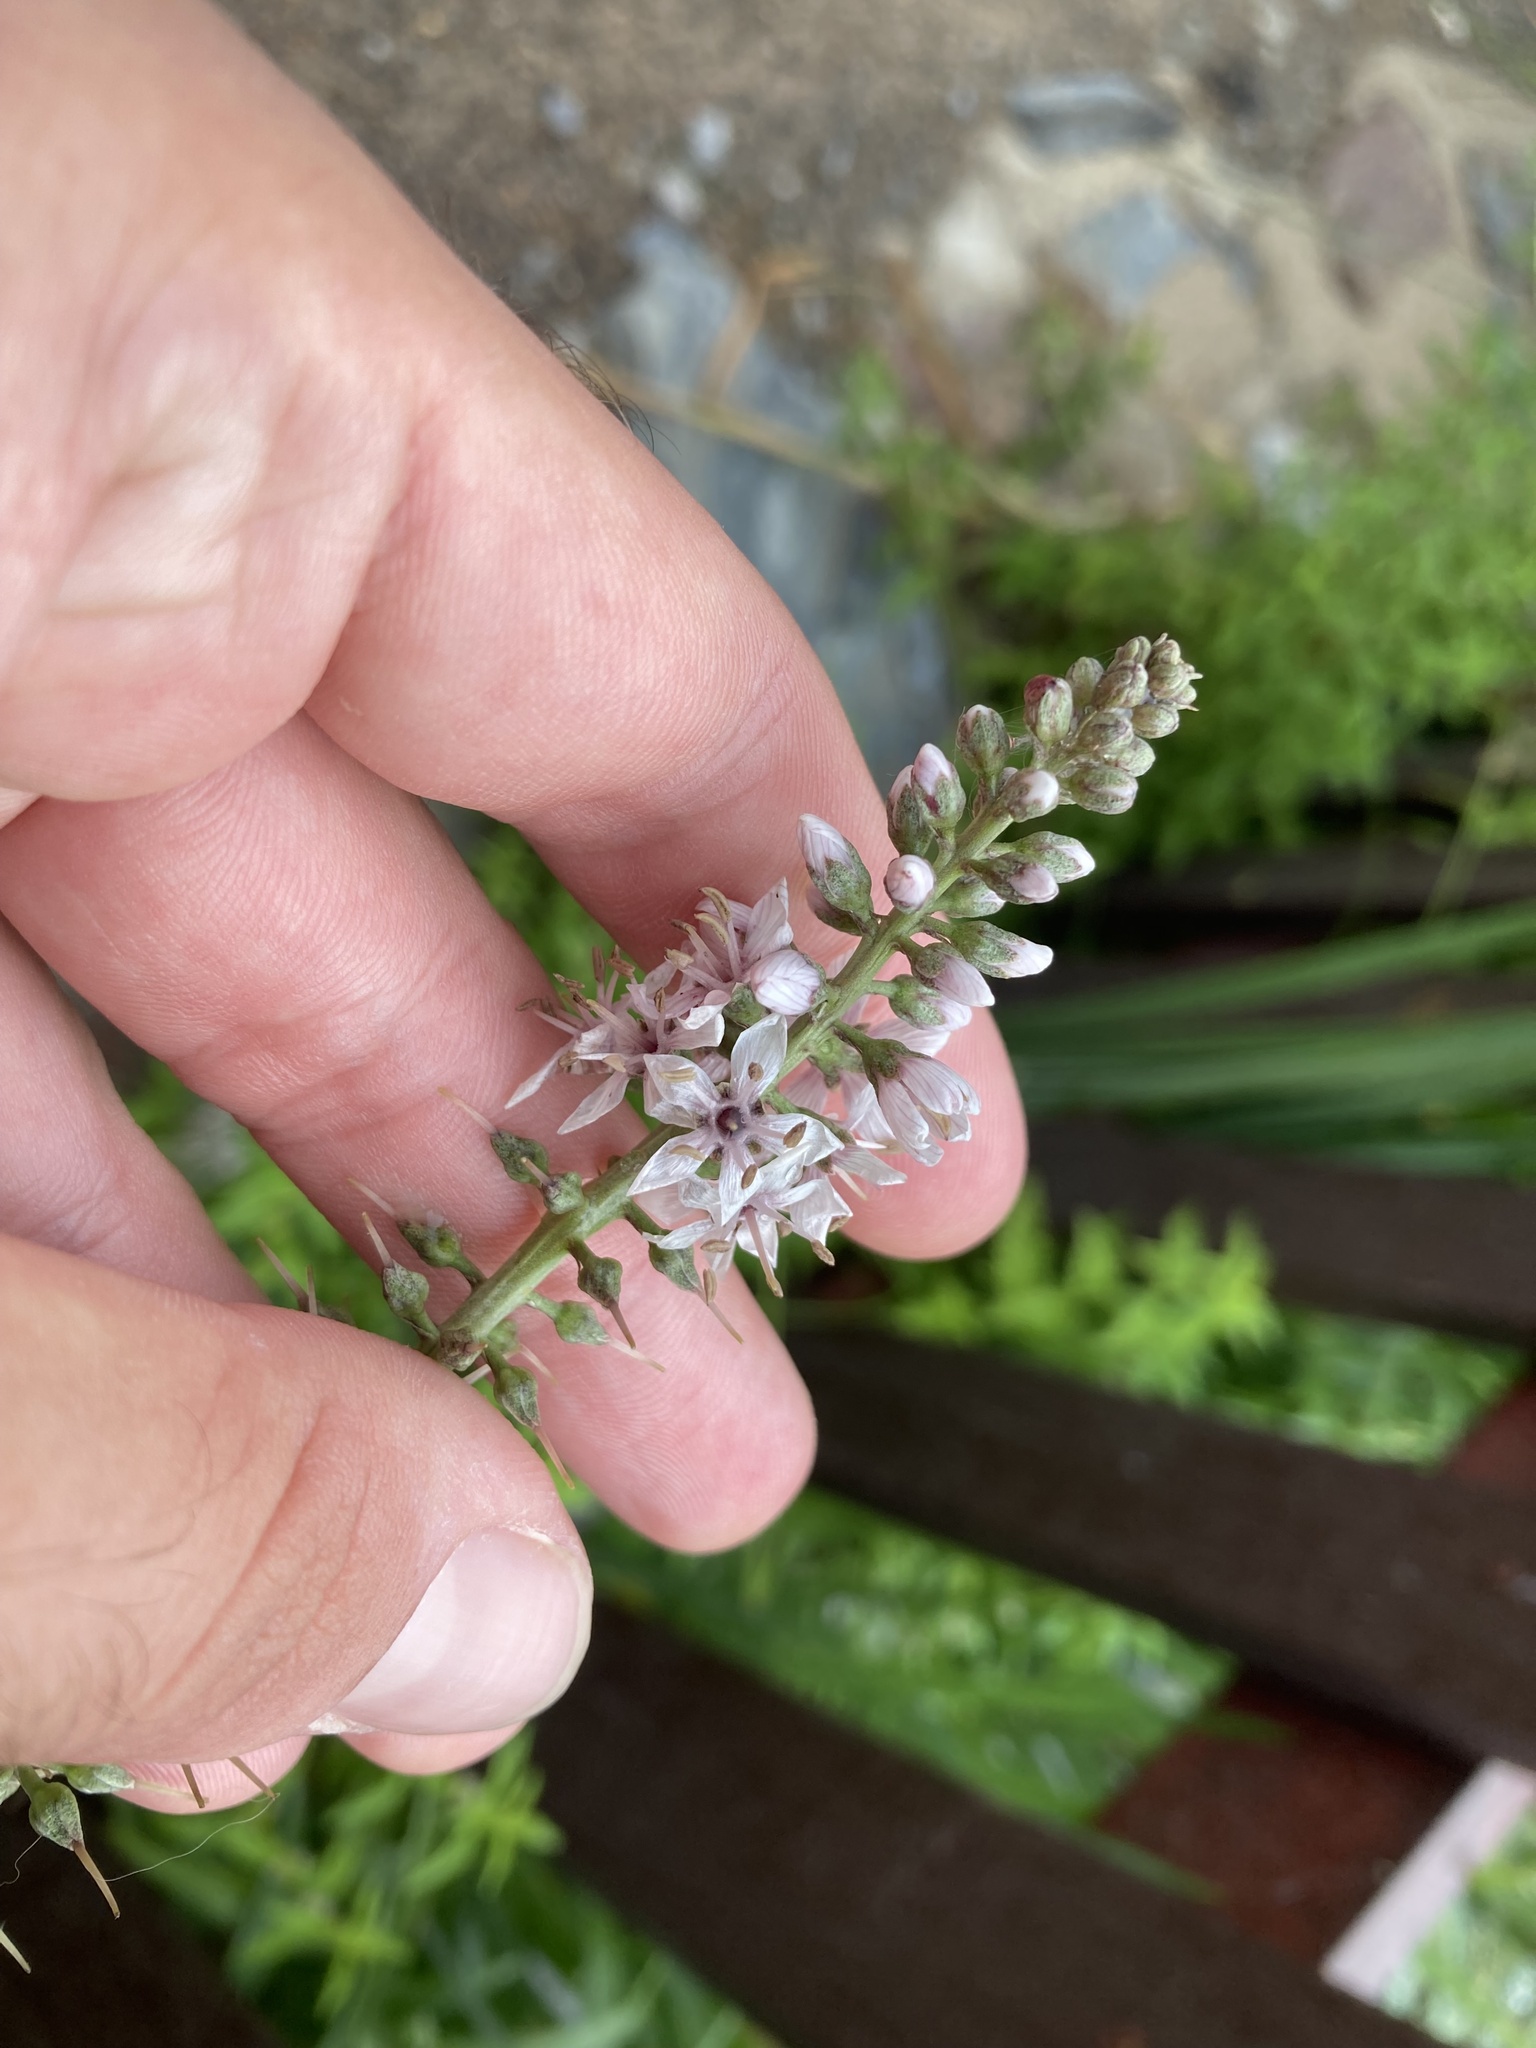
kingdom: Plantae
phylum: Tracheophyta
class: Magnoliopsida
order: Ericales
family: Primulaceae
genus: Lysimachia
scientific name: Lysimachia ephemerum
